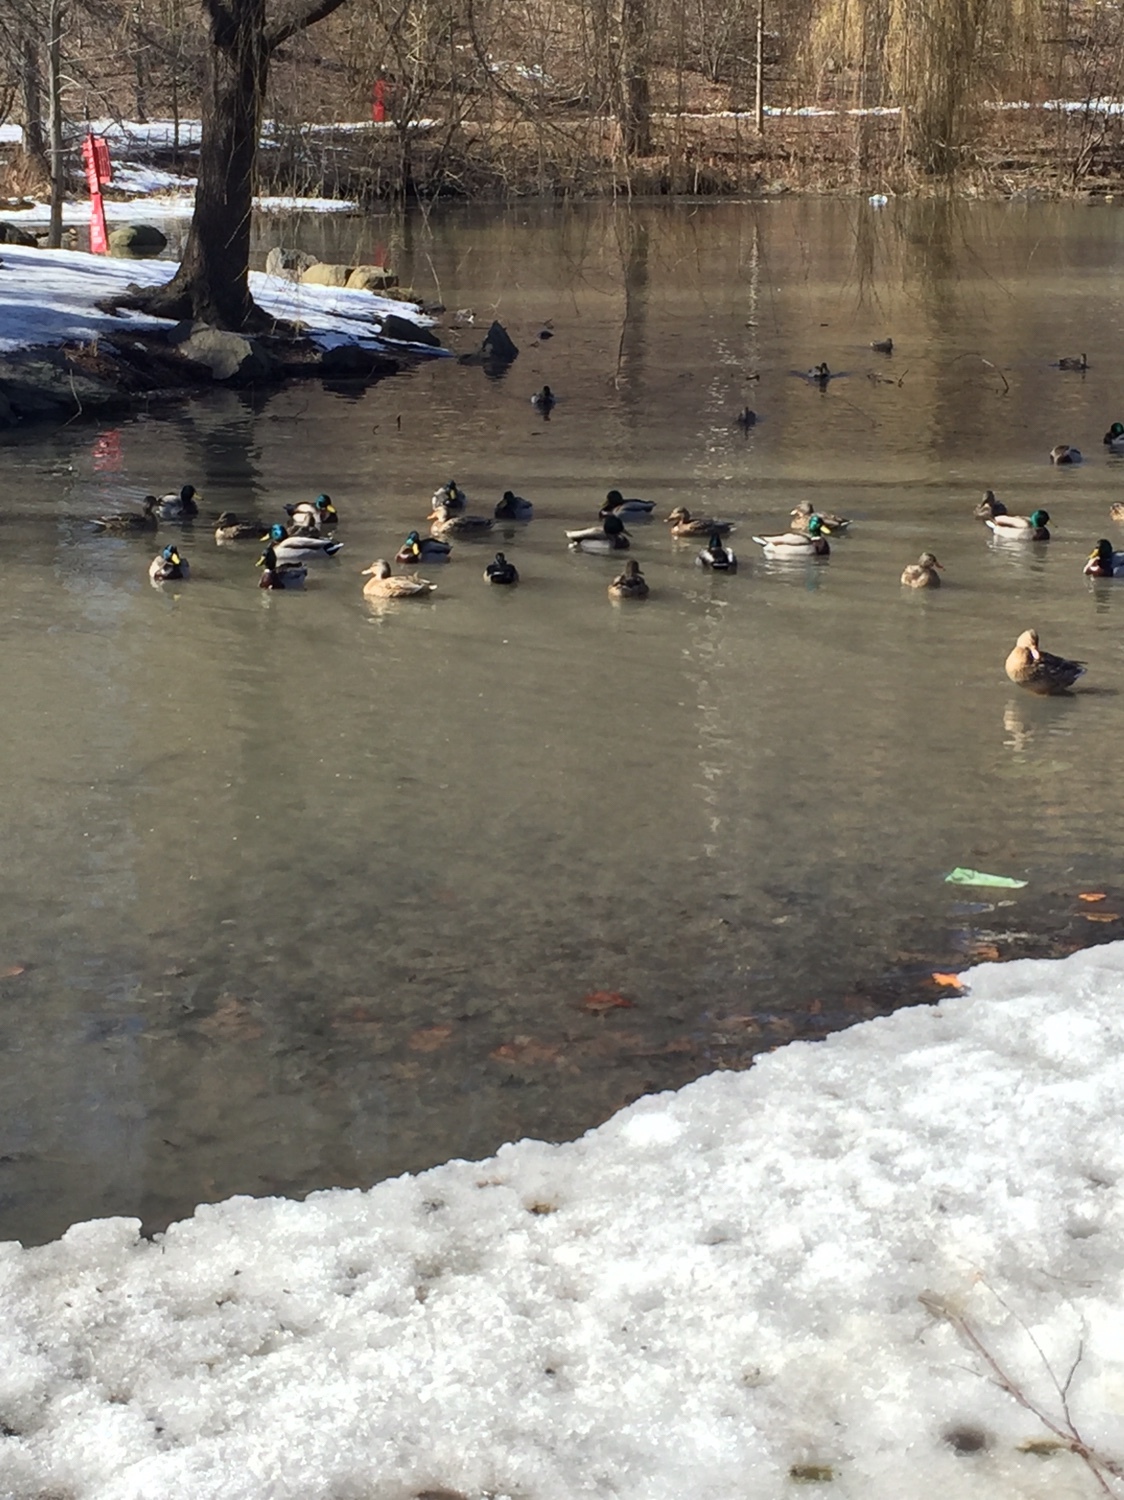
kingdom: Animalia
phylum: Chordata
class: Aves
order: Anseriformes
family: Anatidae
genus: Anas
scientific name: Anas platyrhynchos
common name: Mallard
